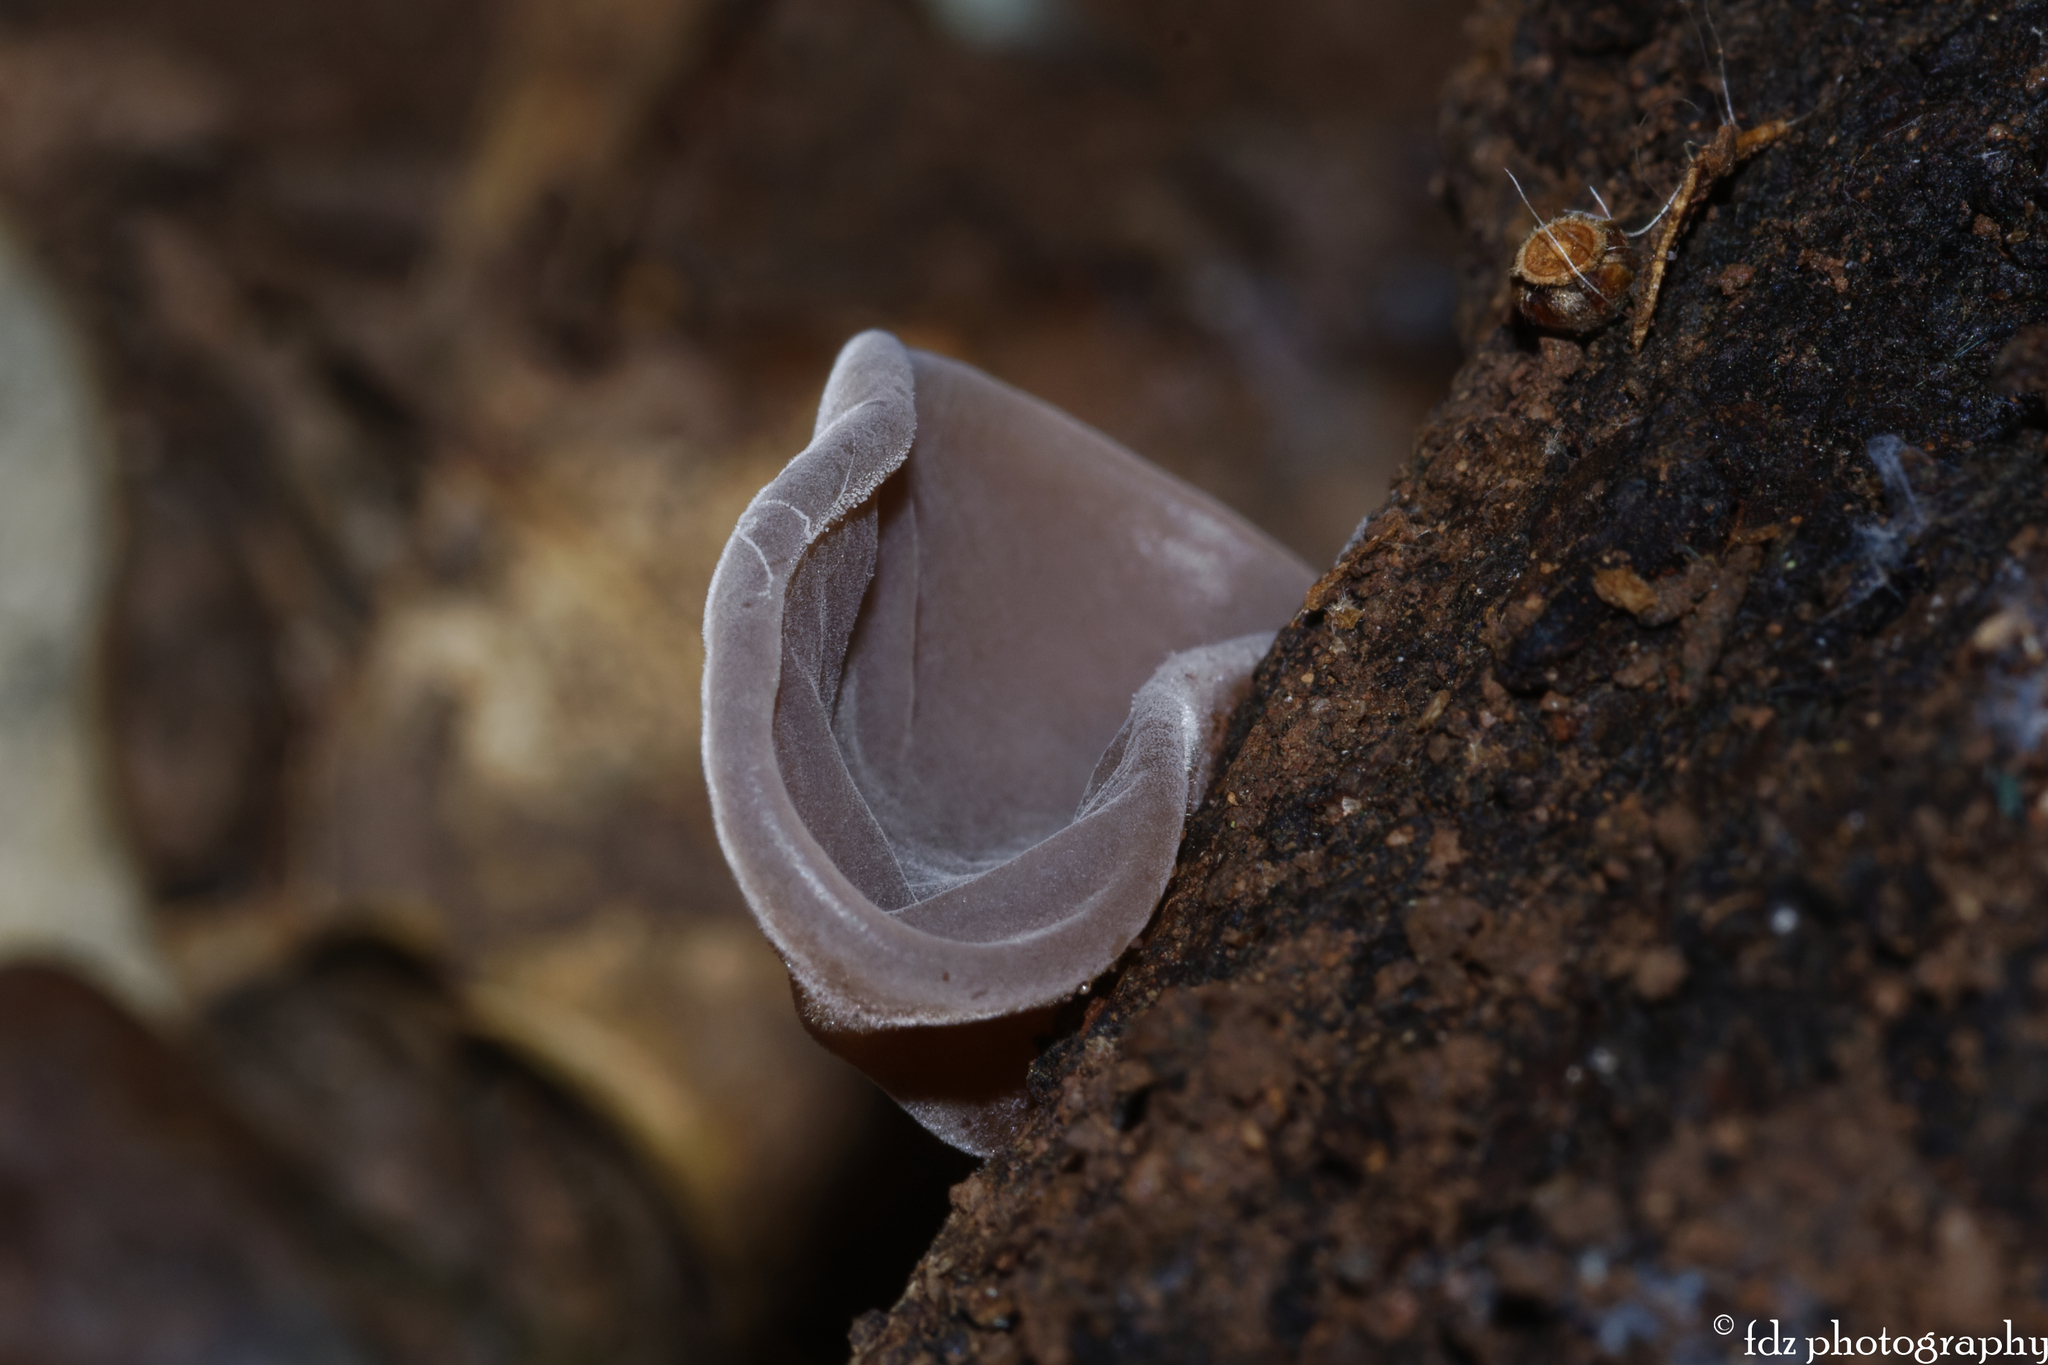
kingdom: Fungi
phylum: Basidiomycota
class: Agaricomycetes
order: Auriculariales
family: Auriculariaceae
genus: Auricularia
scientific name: Auricularia auricula-judae
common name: Jelly ear
